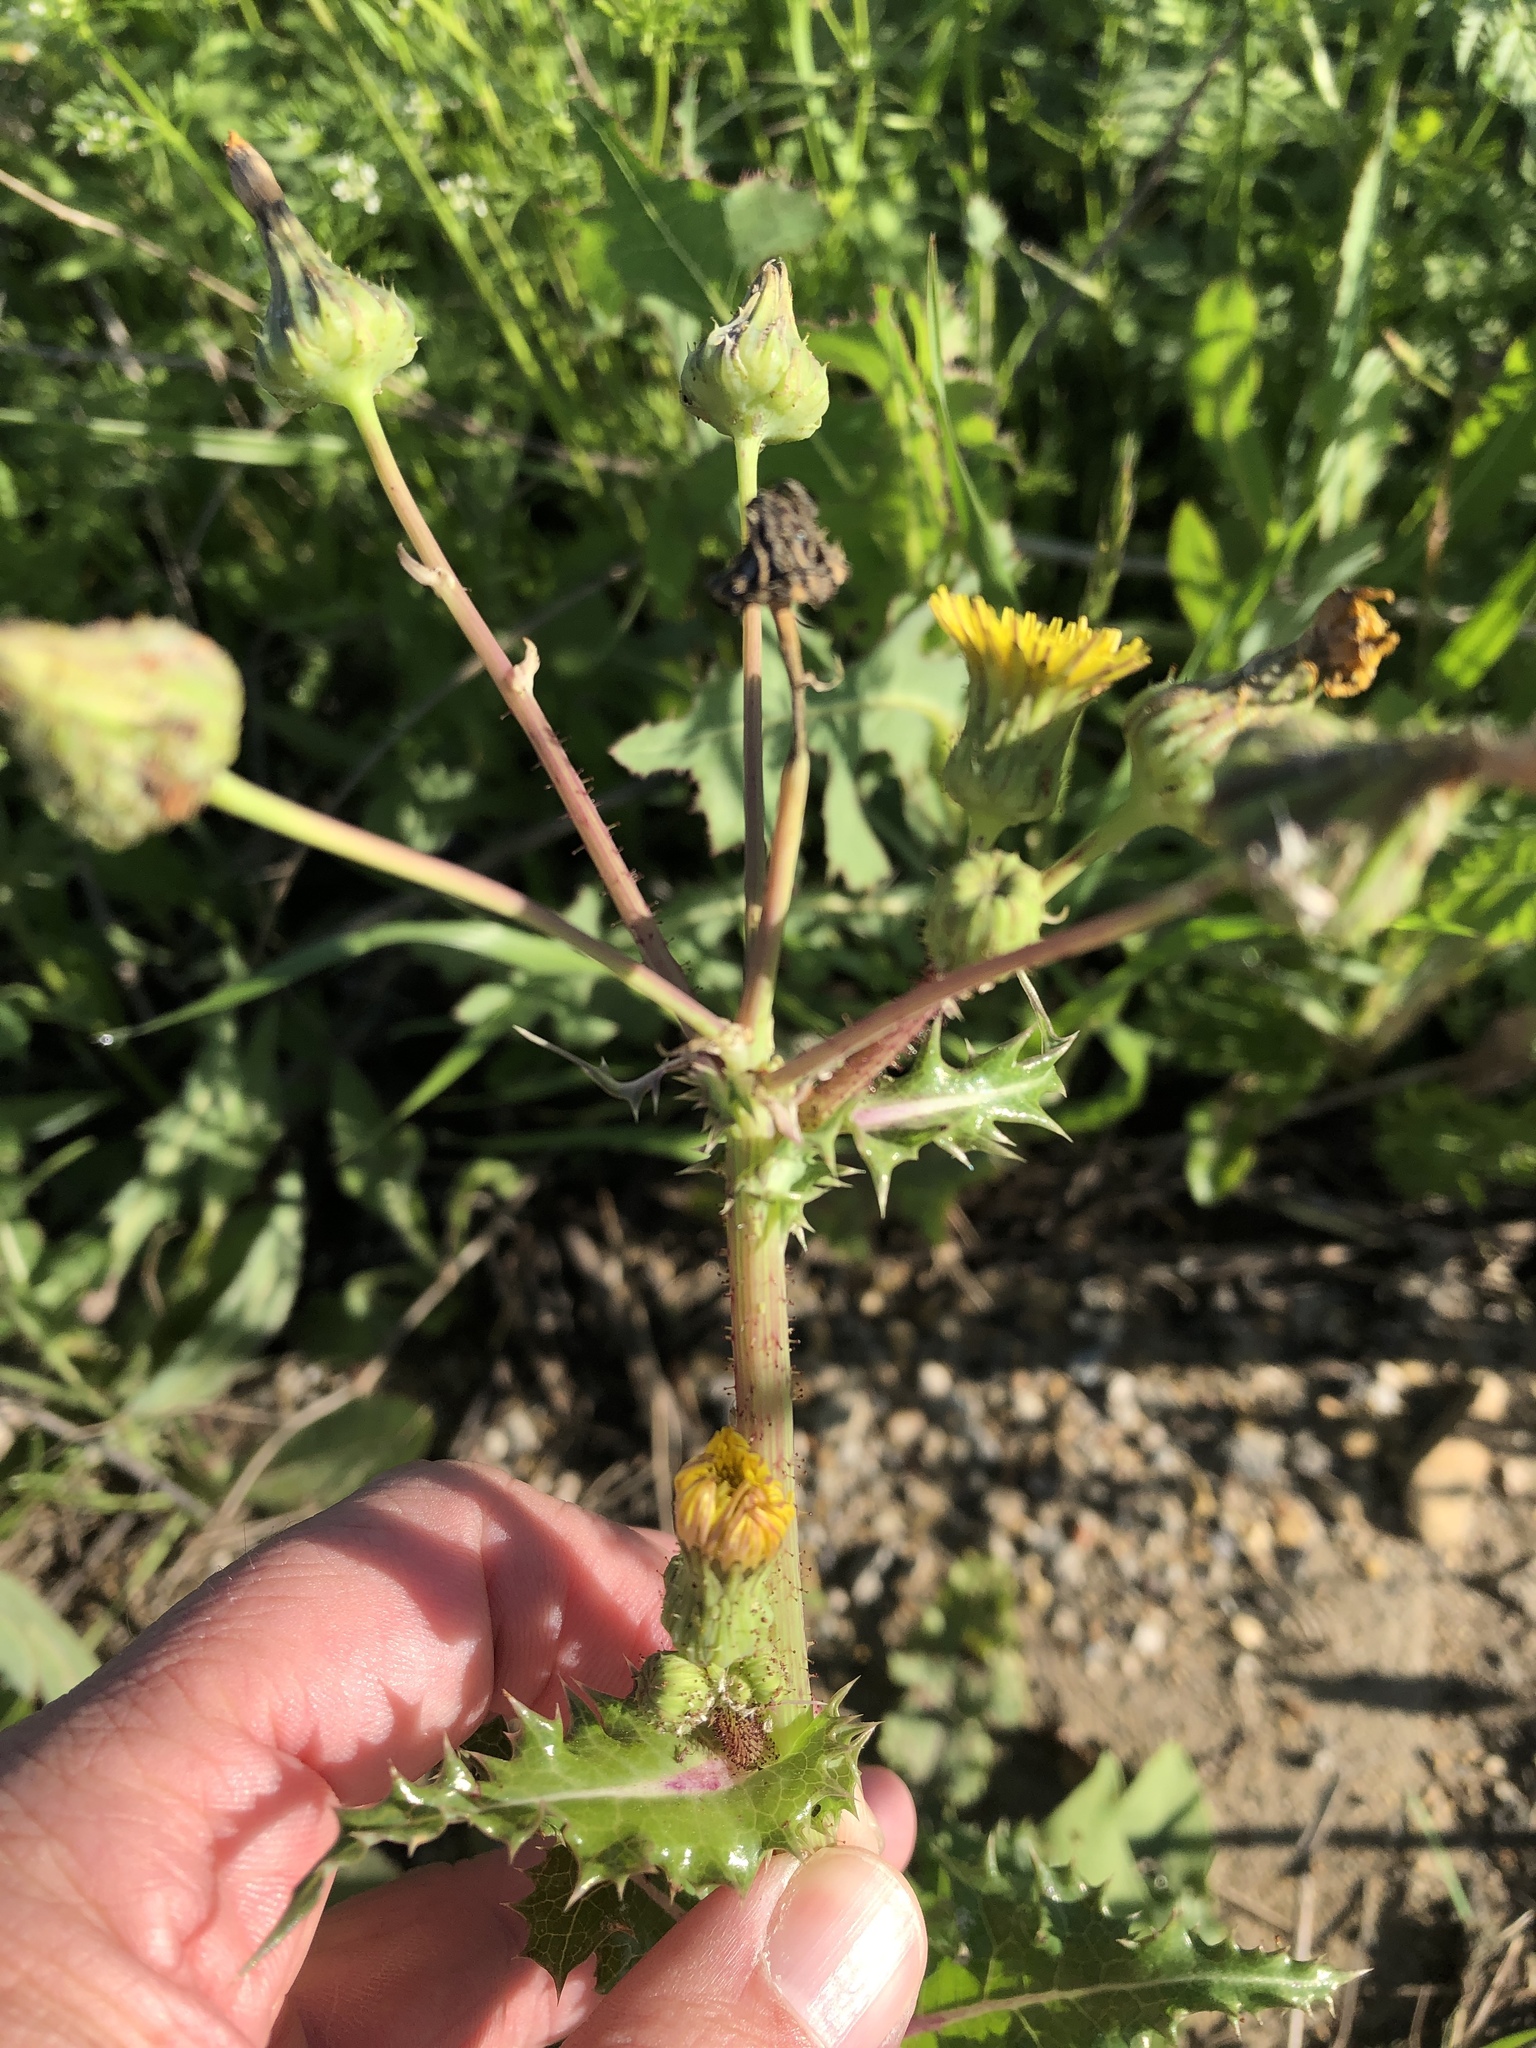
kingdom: Plantae
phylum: Tracheophyta
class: Magnoliopsida
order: Asterales
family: Asteraceae
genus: Sonchus
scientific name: Sonchus asper
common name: Prickly sow-thistle
